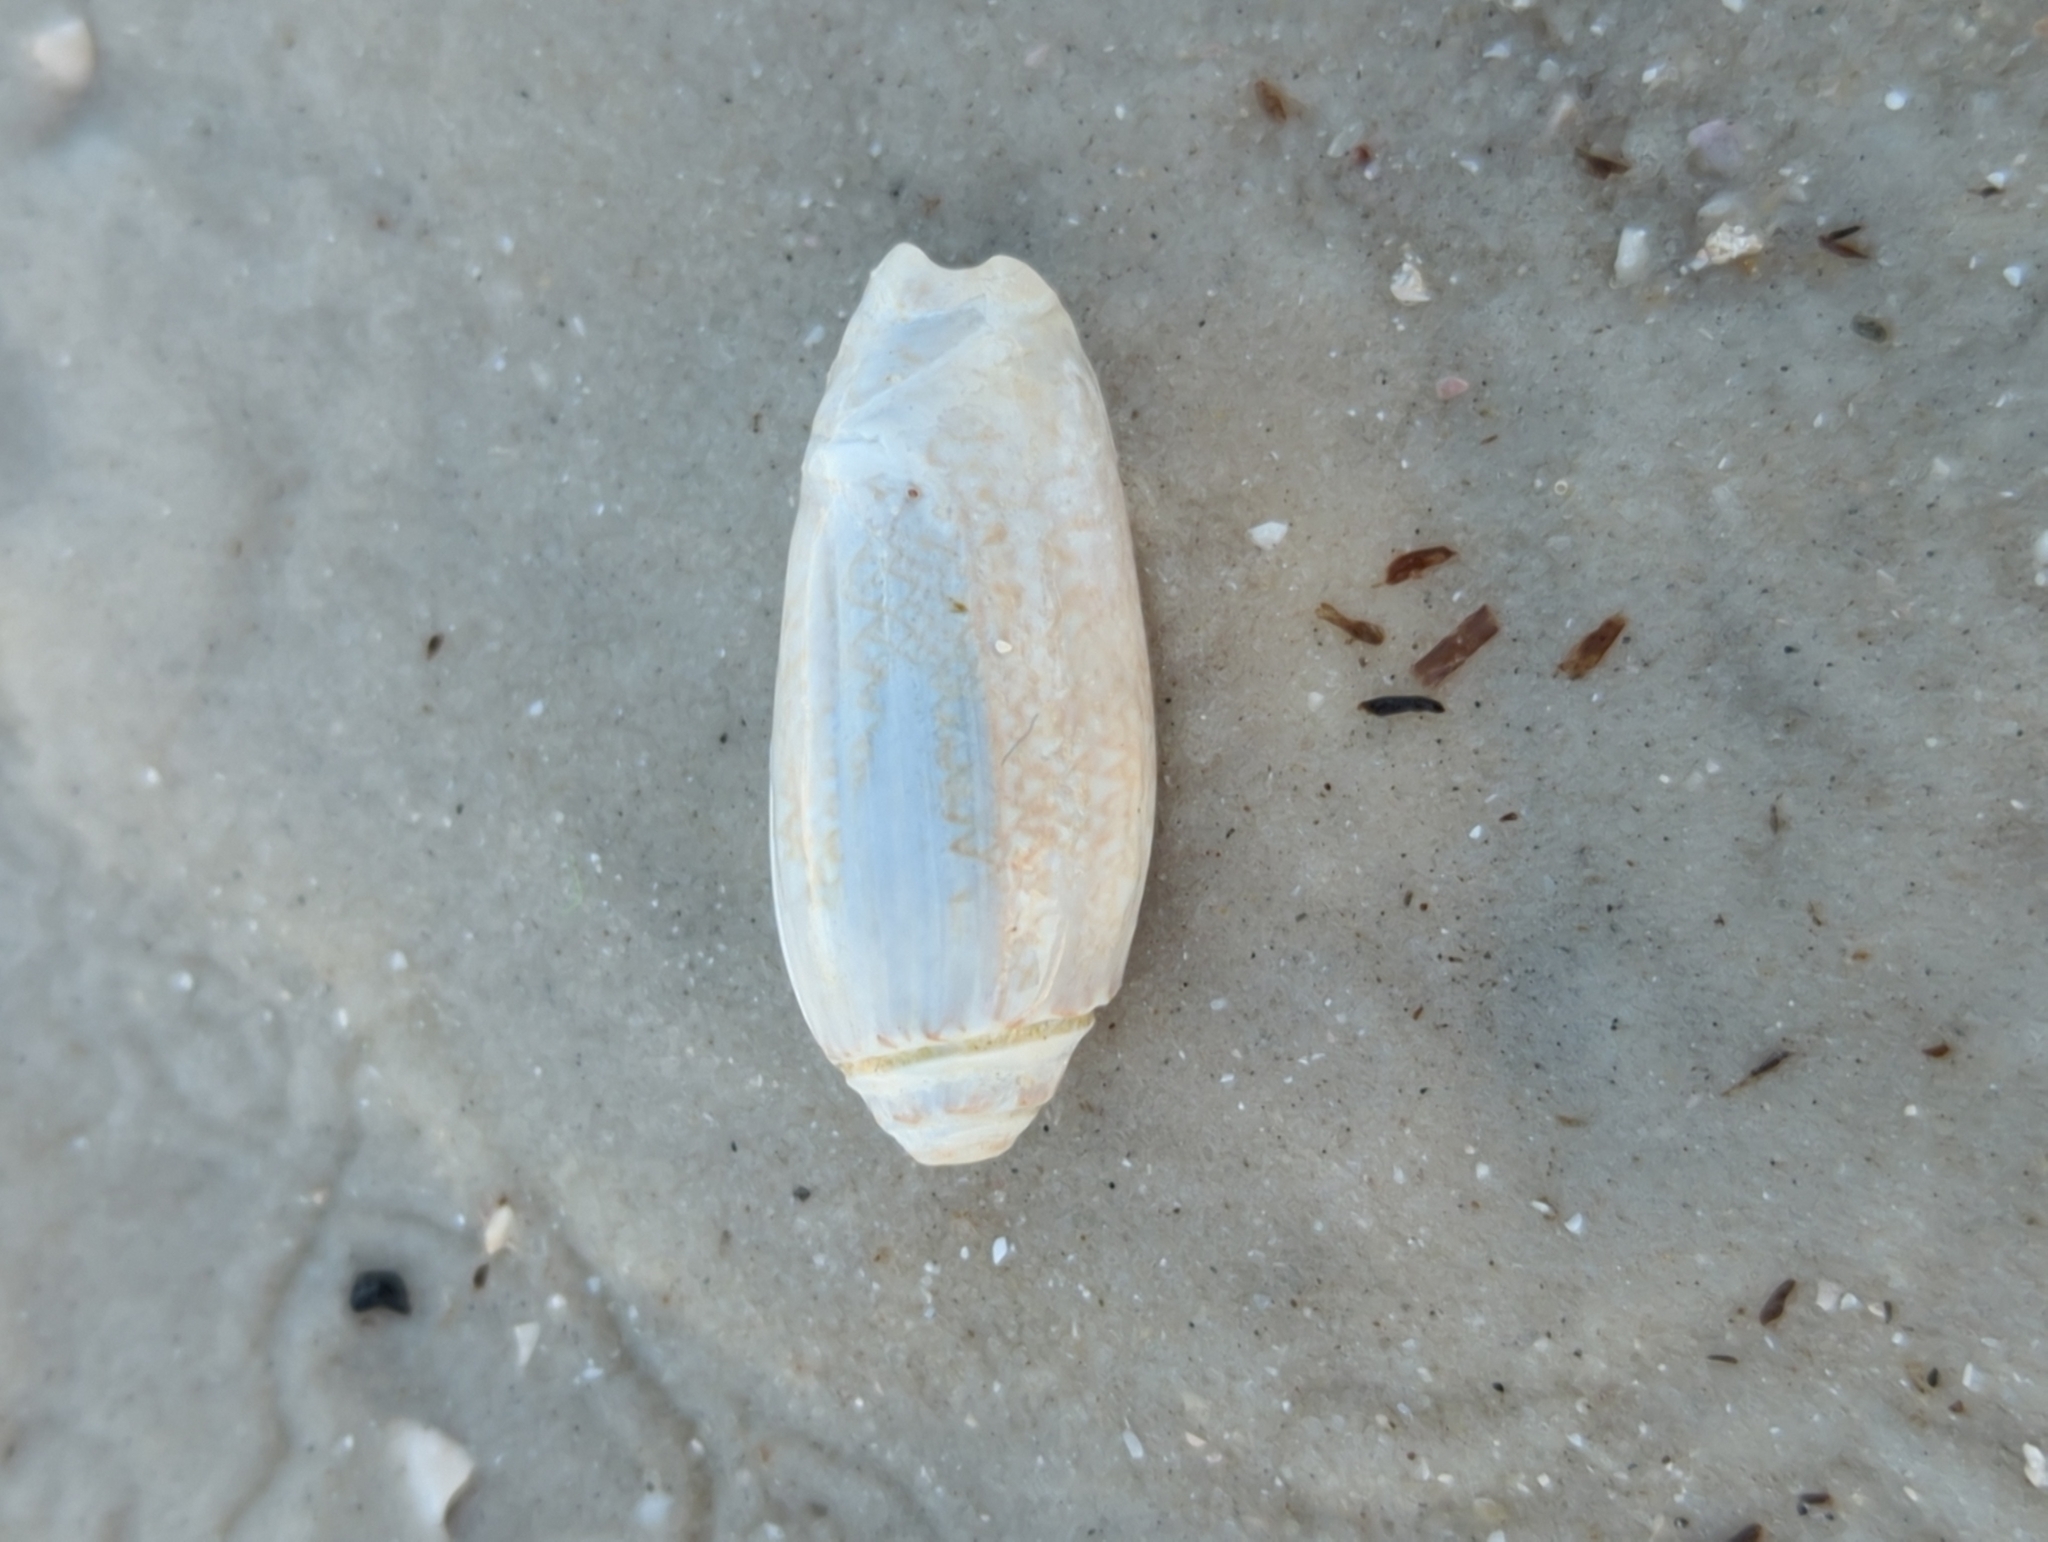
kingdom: Animalia
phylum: Mollusca
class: Gastropoda
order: Neogastropoda
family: Olividae
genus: Oliva
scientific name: Oliva sayana
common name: Lettered olive
